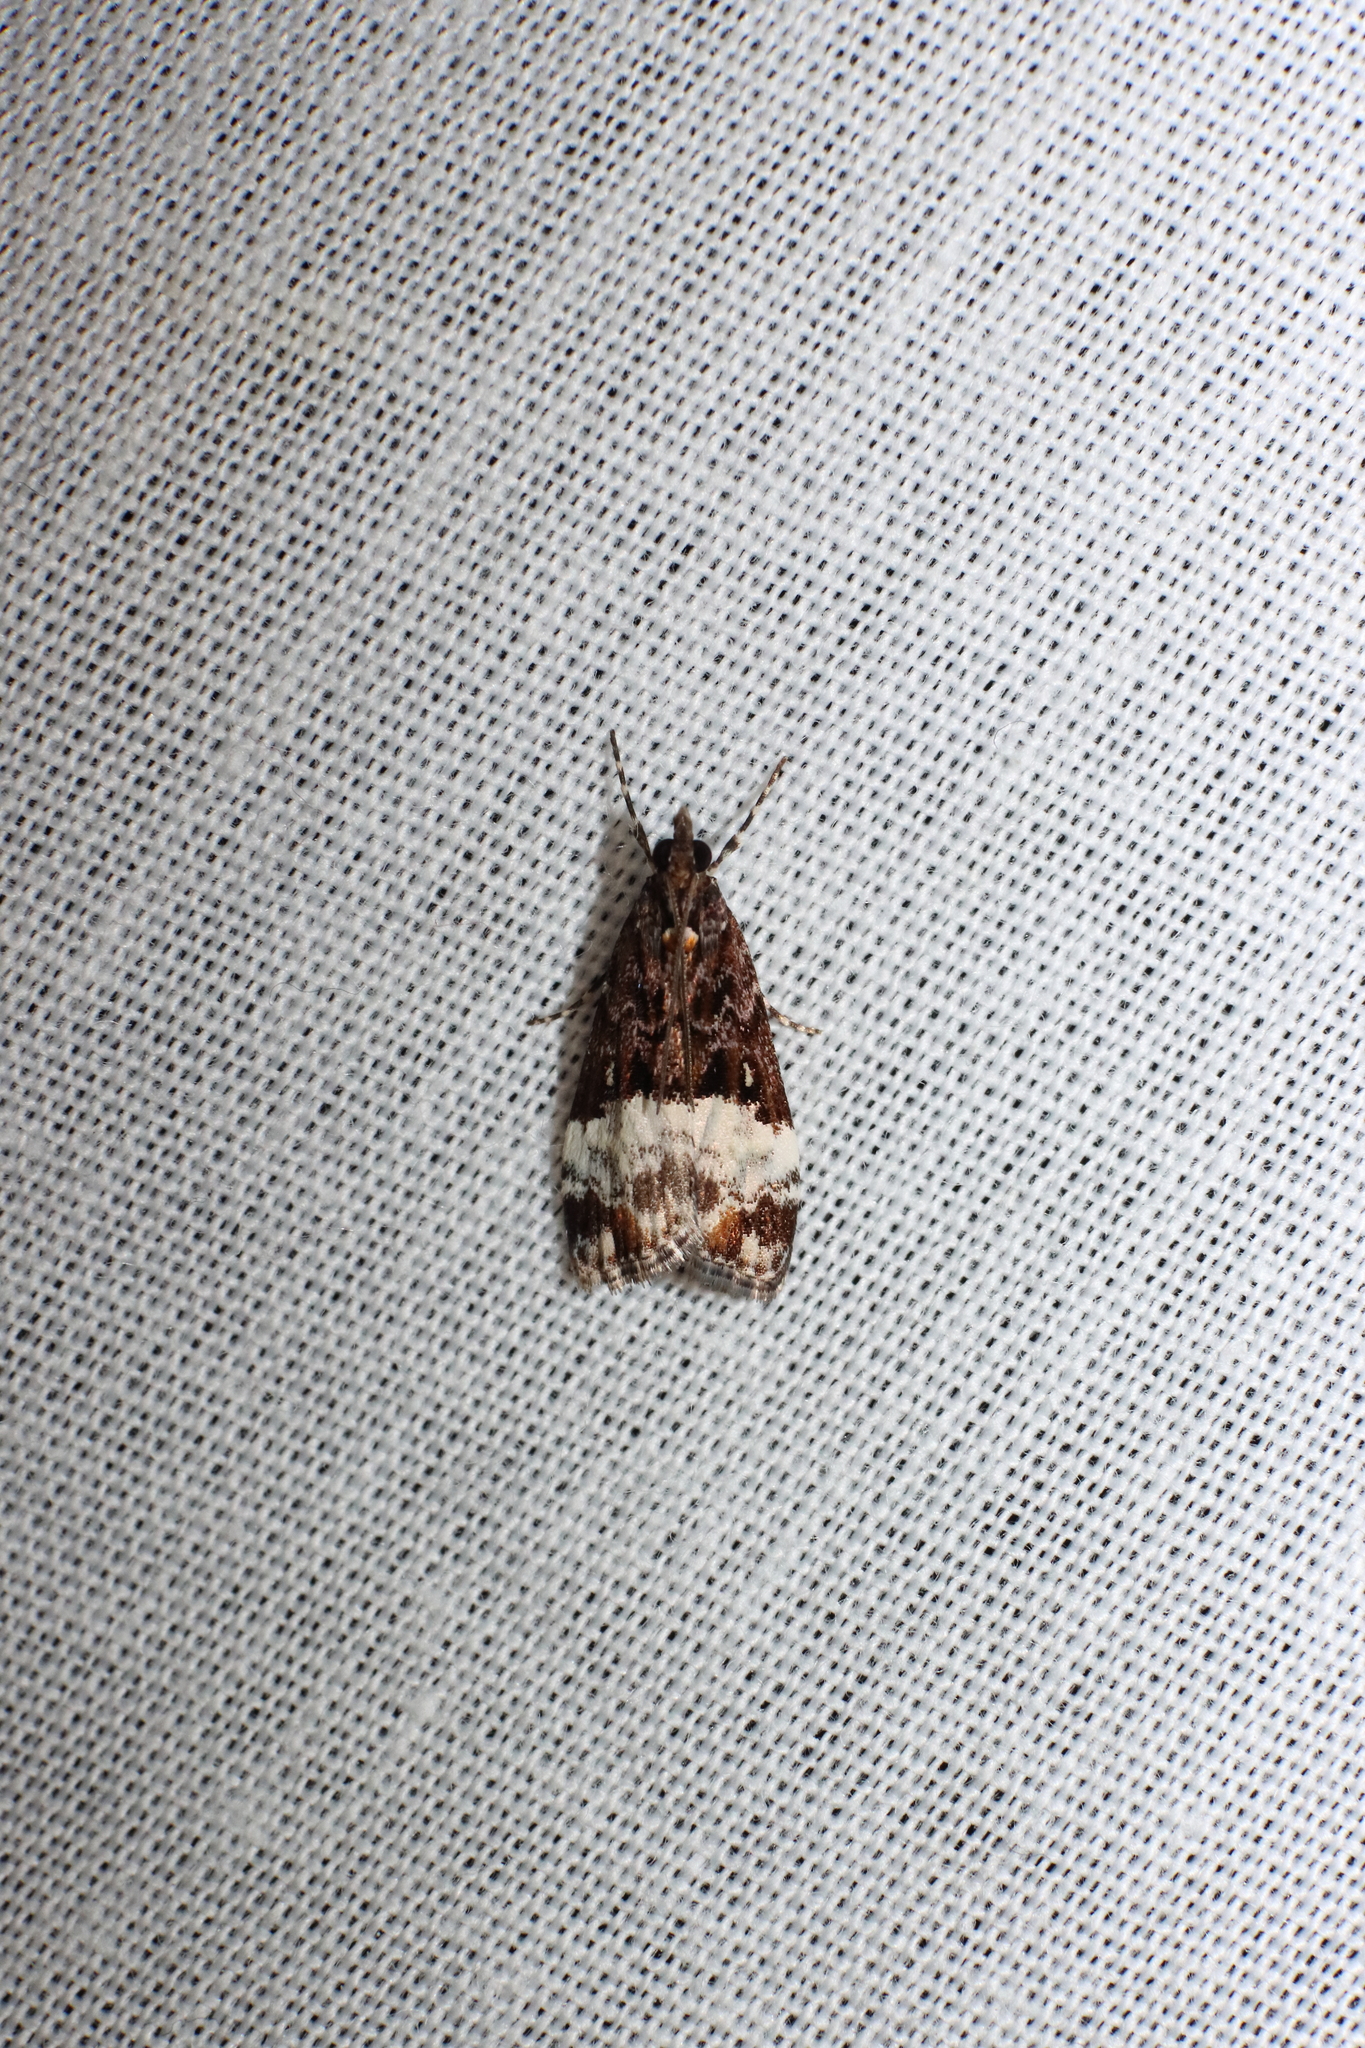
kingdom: Animalia
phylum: Arthropoda
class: Insecta
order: Lepidoptera
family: Crambidae
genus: Scoparia
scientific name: Scoparia minusculalis
